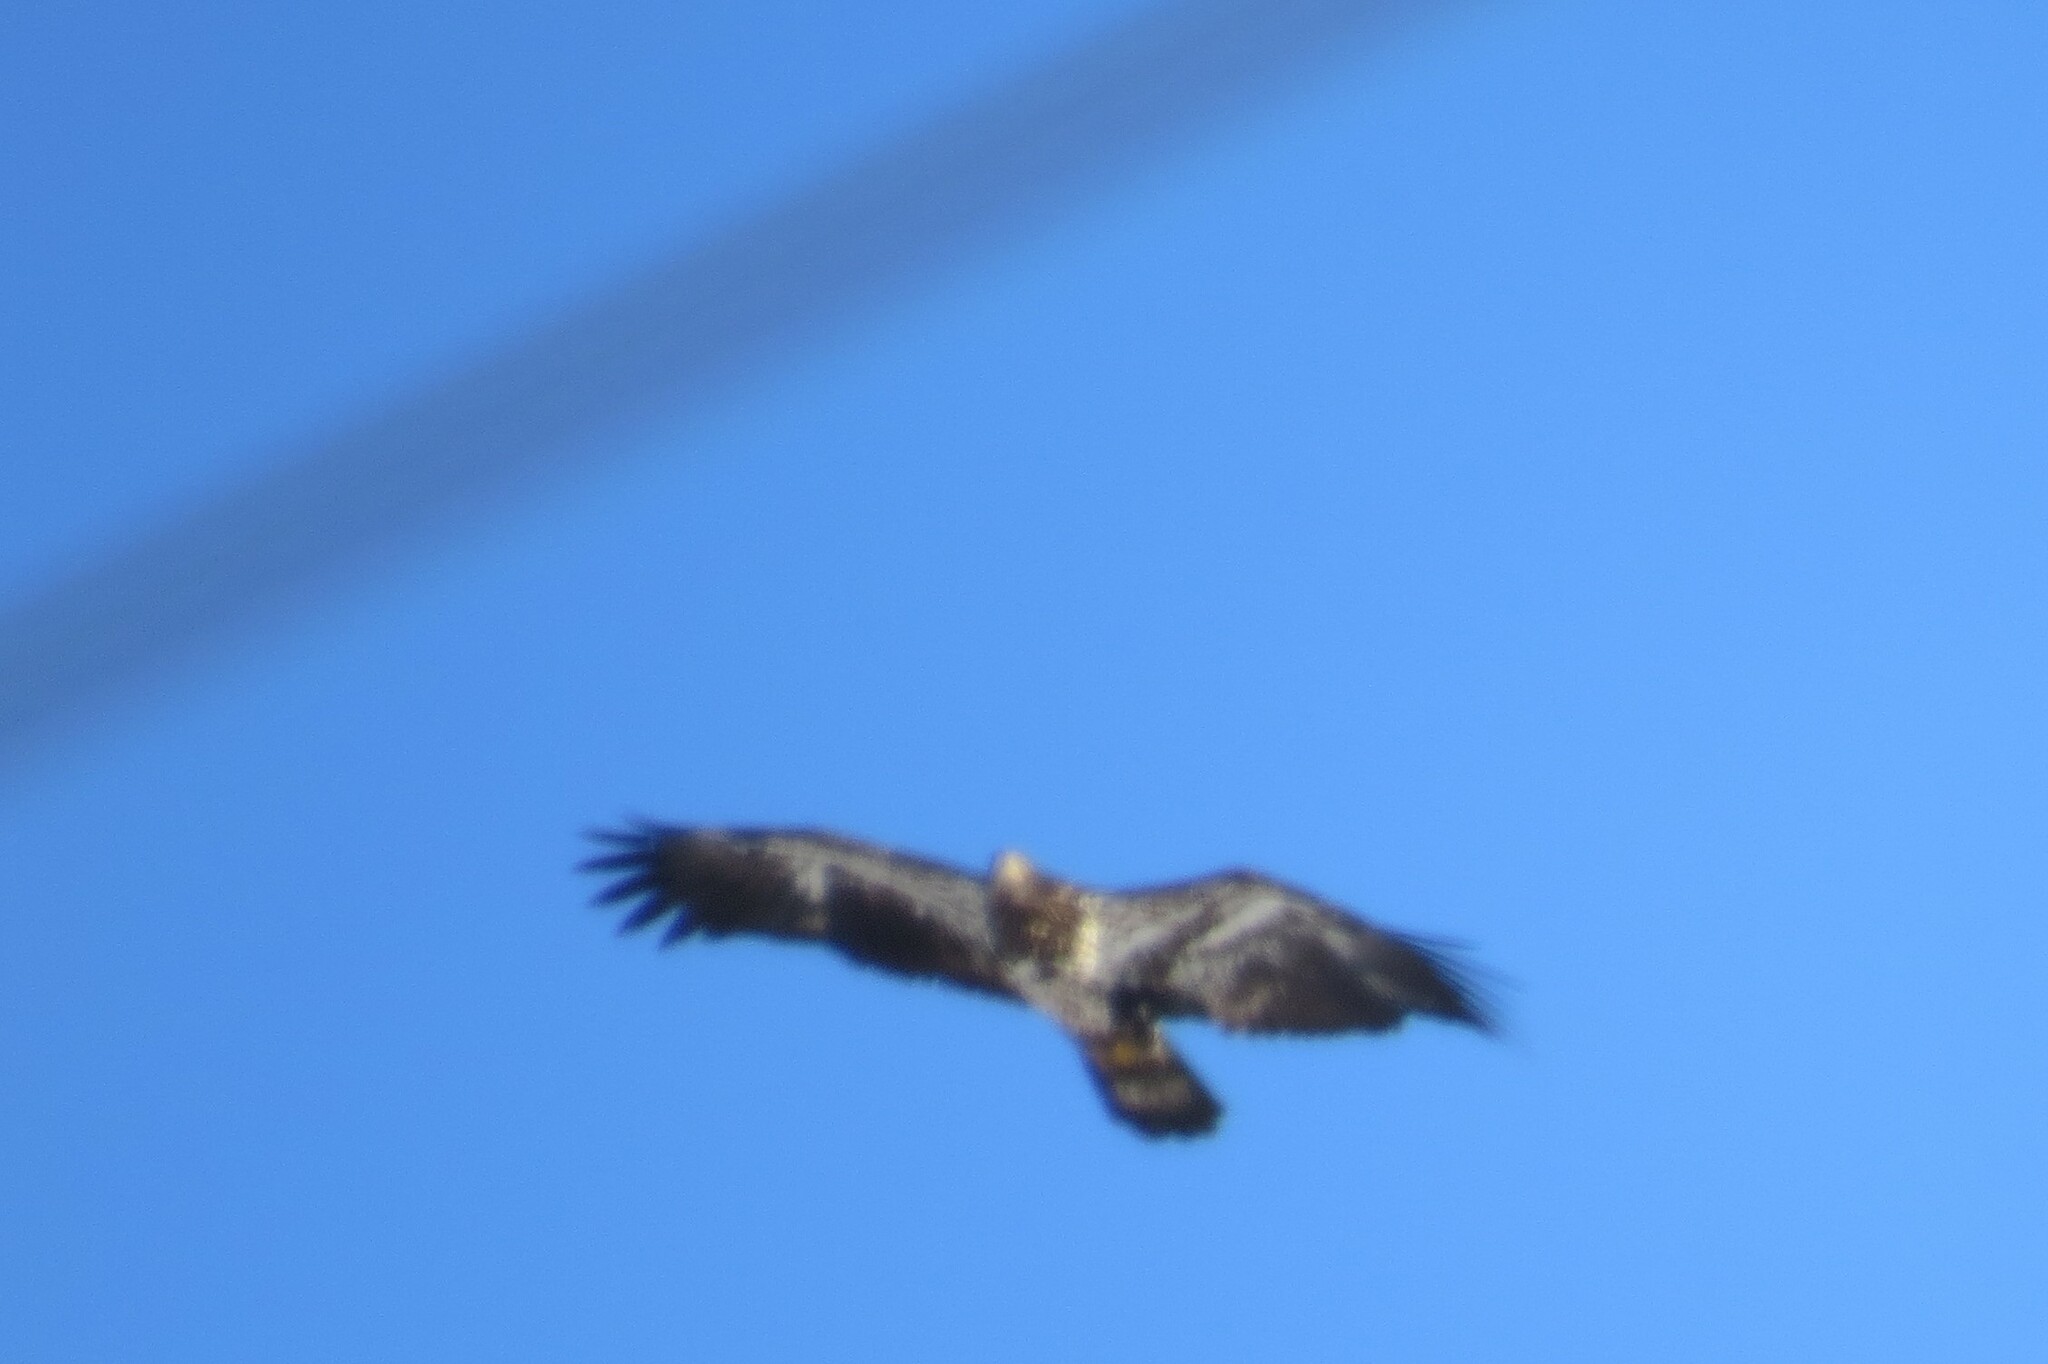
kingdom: Animalia
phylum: Chordata
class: Aves
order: Accipitriformes
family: Accipitridae
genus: Haliaeetus
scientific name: Haliaeetus leucocephalus
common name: Bald eagle
